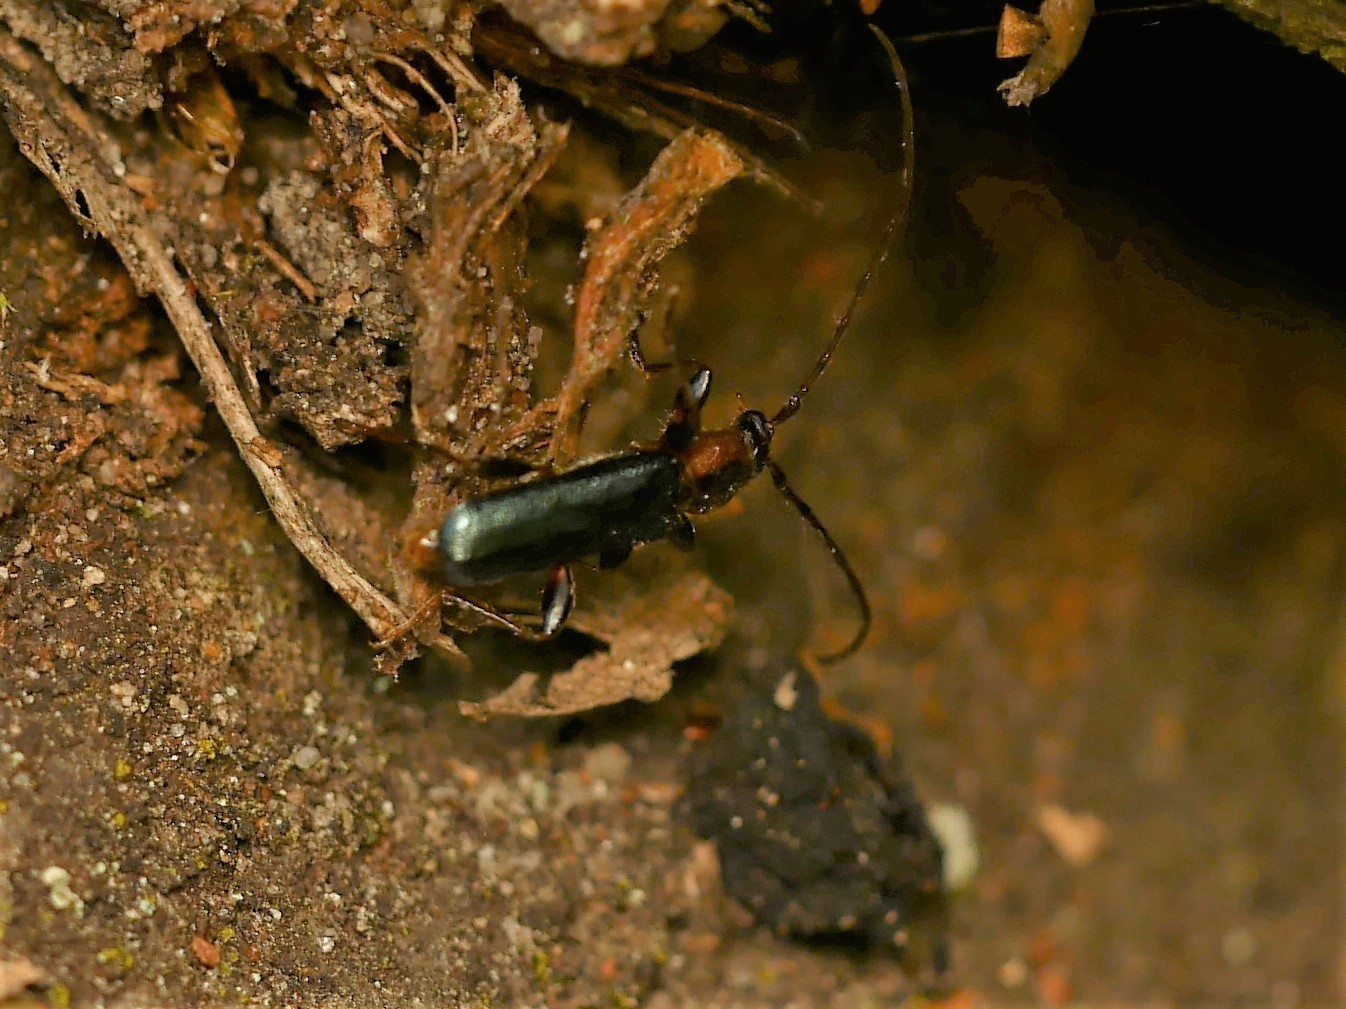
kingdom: Animalia
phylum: Arthropoda
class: Insecta
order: Coleoptera
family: Cerambycidae
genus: Phymatodes
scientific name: Phymatodes testaceus
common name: Long-horned beetle
